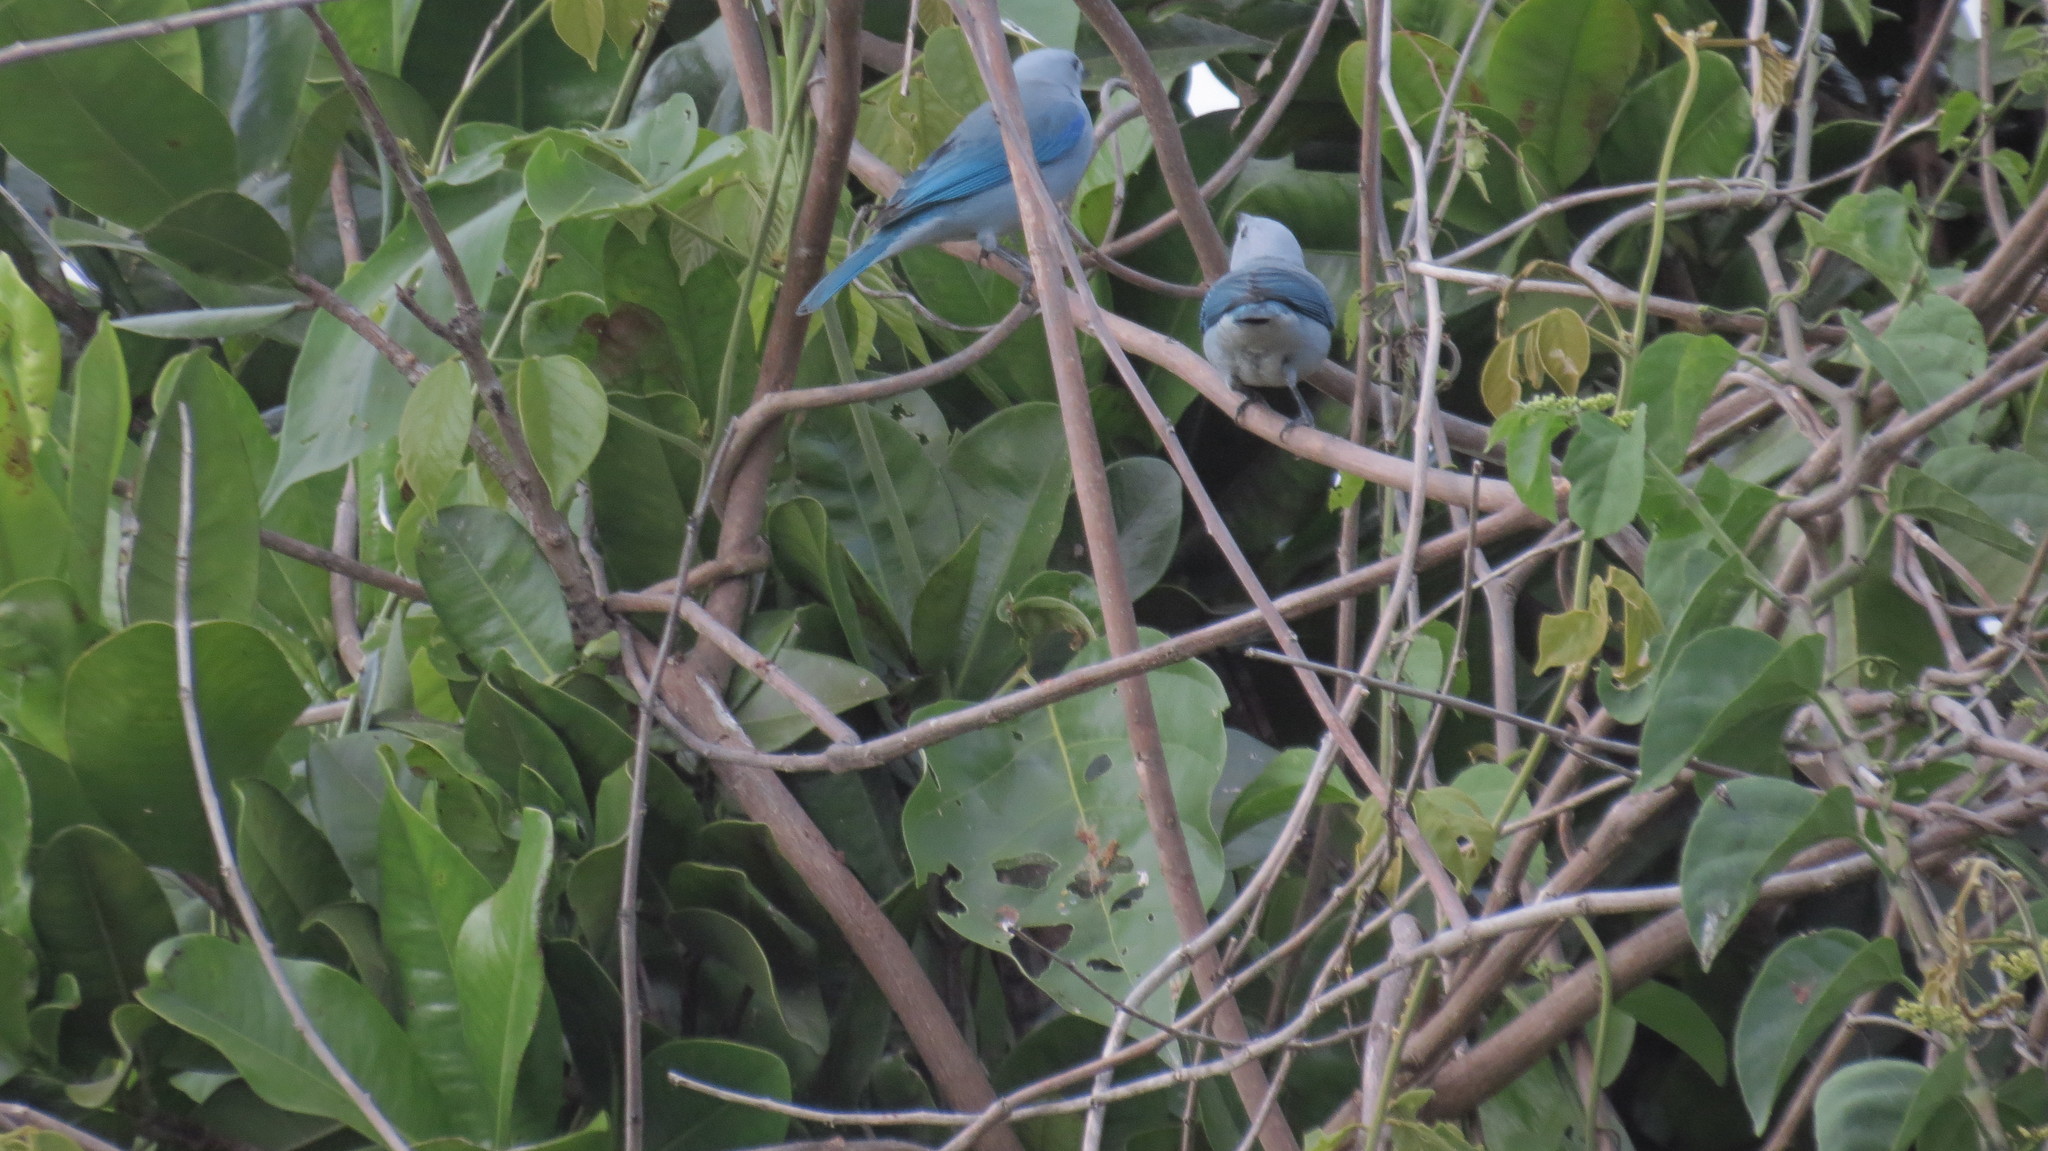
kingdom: Animalia
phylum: Chordata
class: Aves
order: Passeriformes
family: Thraupidae
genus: Thraupis
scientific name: Thraupis episcopus
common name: Blue-grey tanager
